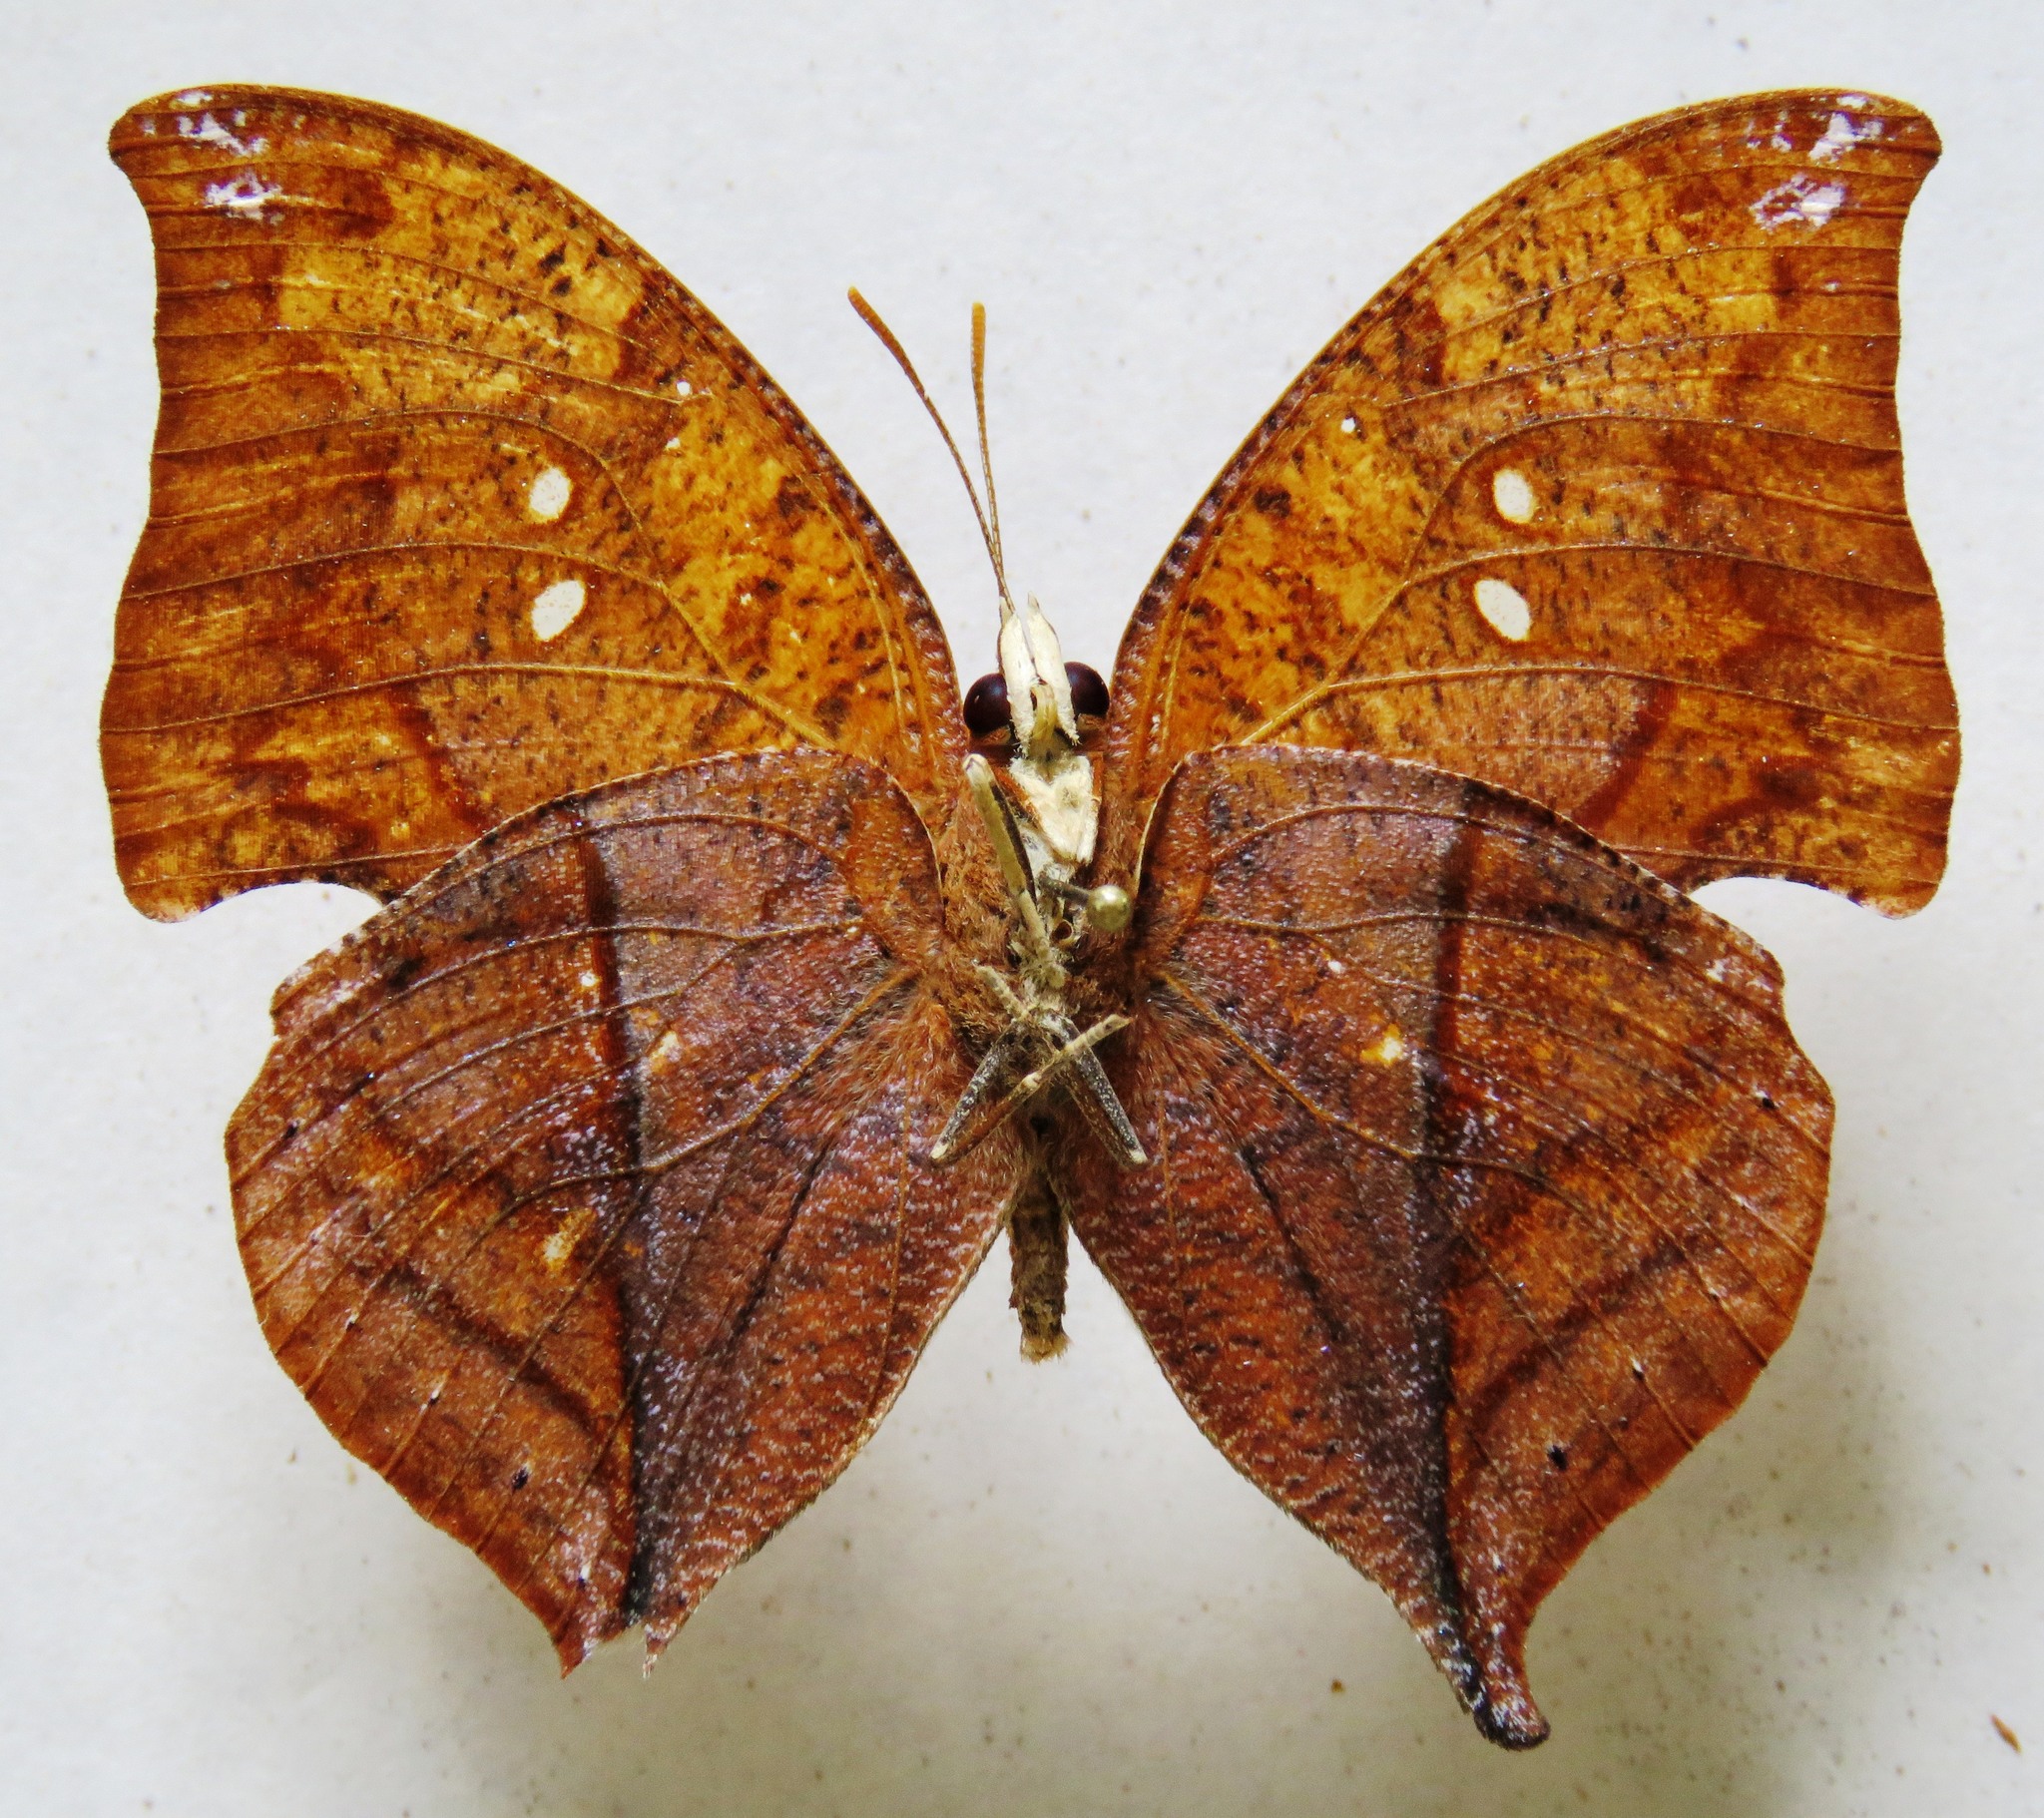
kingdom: Animalia
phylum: Arthropoda
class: Insecta
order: Lepidoptera
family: Nymphalidae
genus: Zaretis
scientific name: Zaretis itys
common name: Skeletonized leafwing
